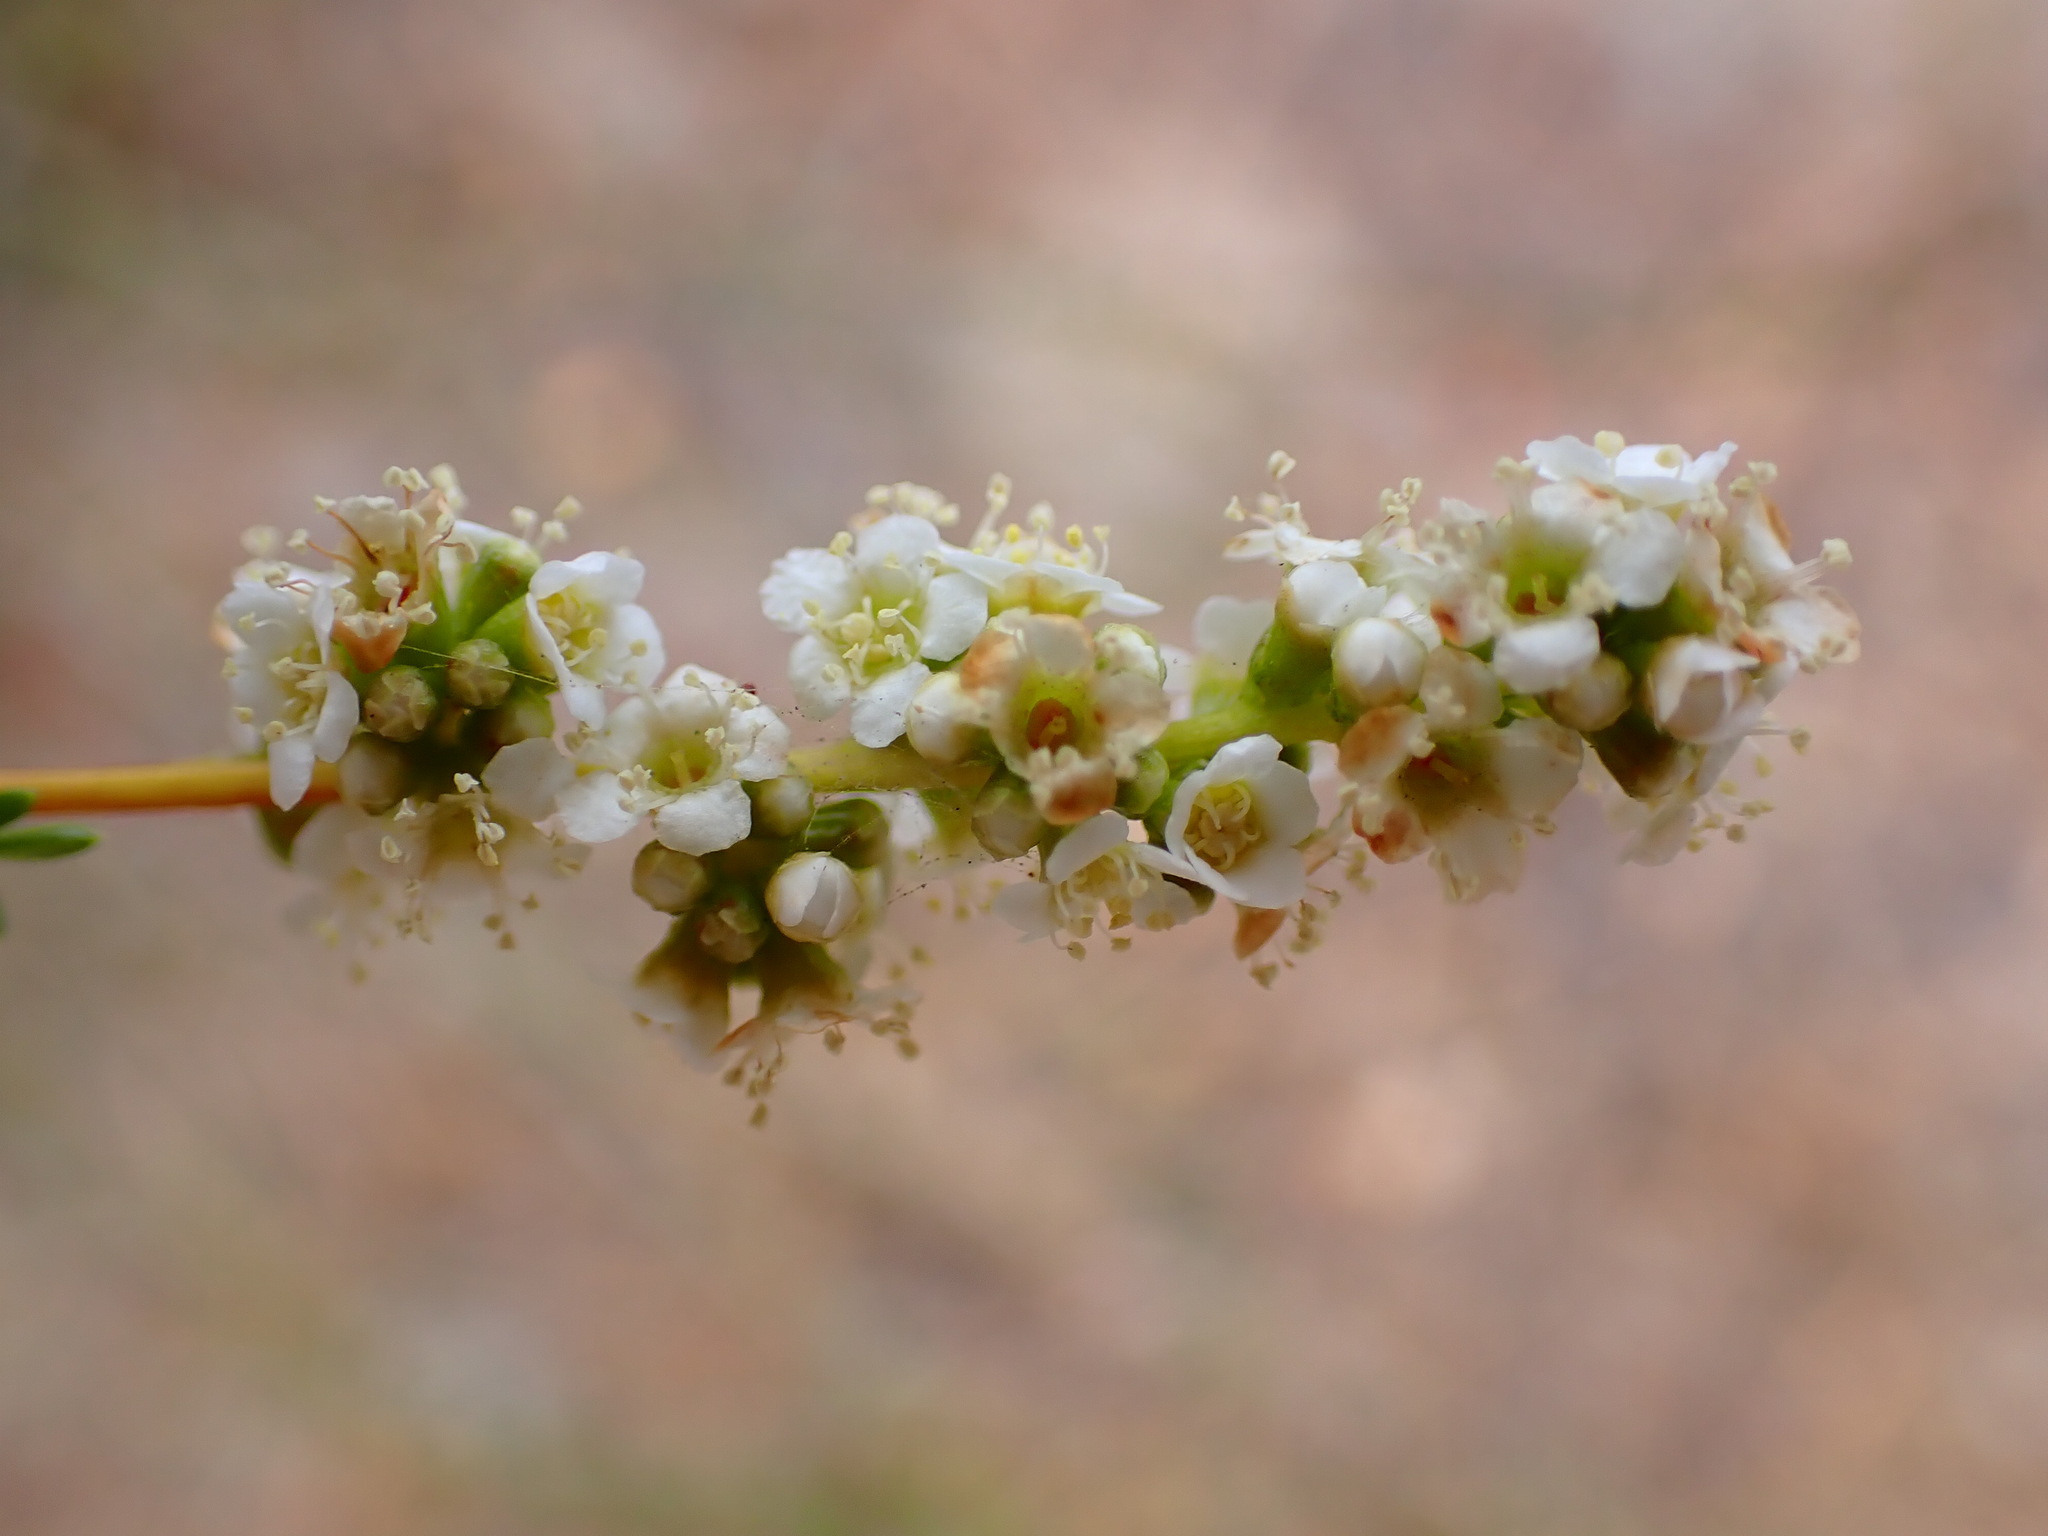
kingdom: Plantae
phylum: Tracheophyta
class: Magnoliopsida
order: Rosales
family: Rosaceae
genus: Adenostoma
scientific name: Adenostoma fasciculatum
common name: Chamise
